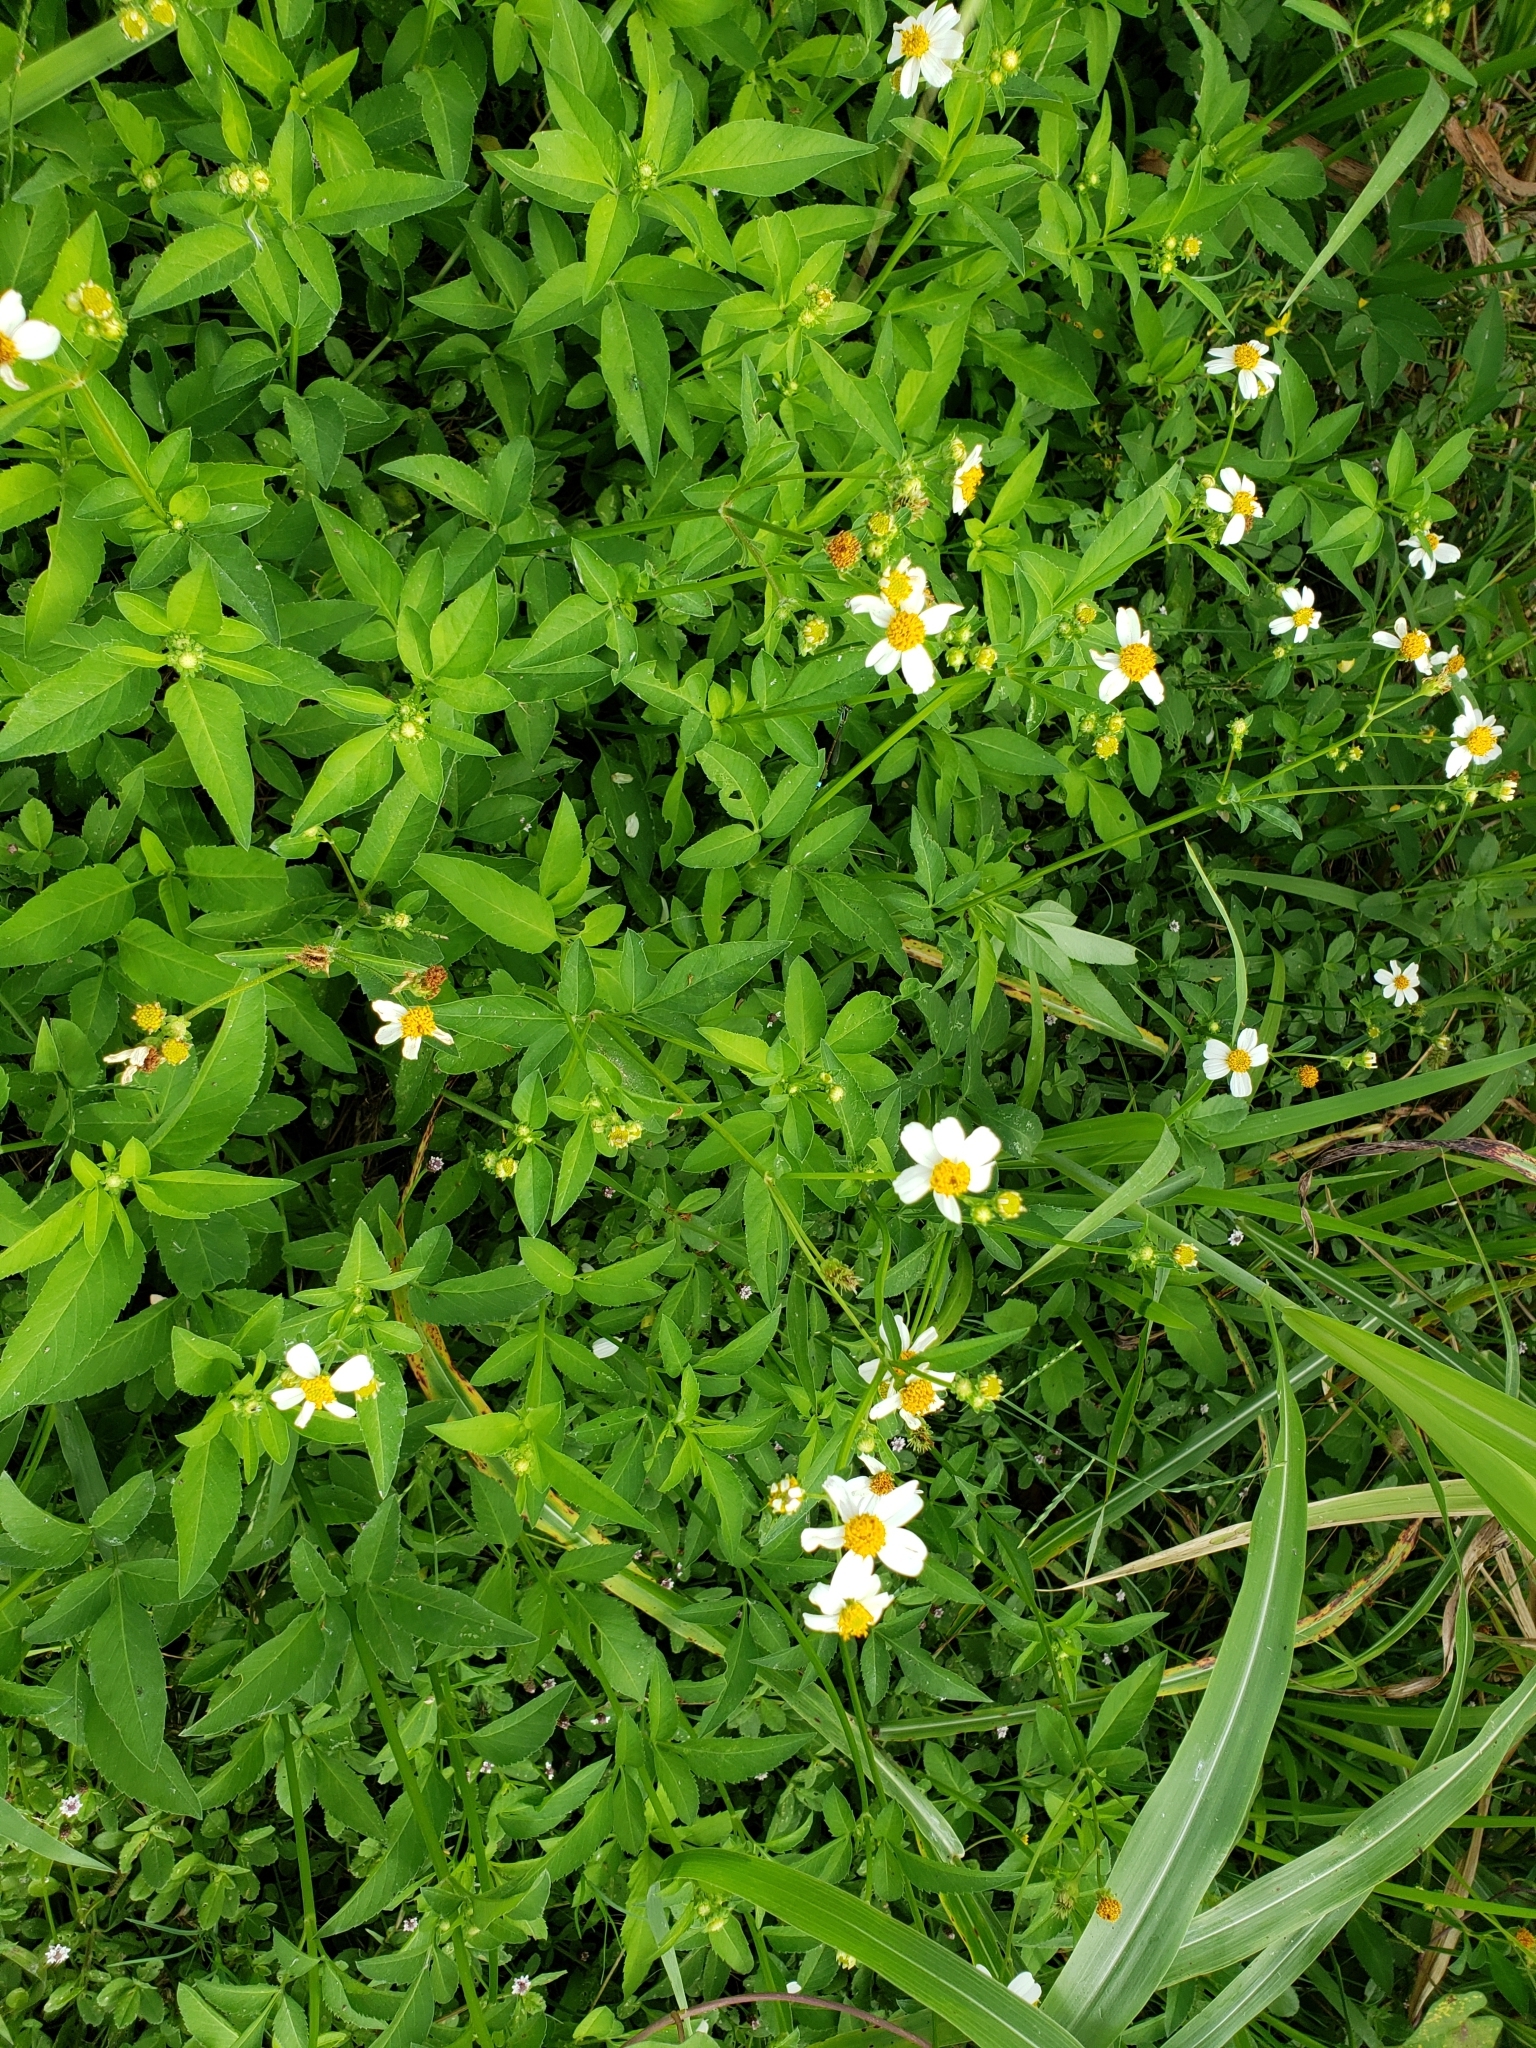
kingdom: Plantae
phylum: Tracheophyta
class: Magnoliopsida
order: Asterales
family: Asteraceae
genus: Bidens
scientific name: Bidens alba
